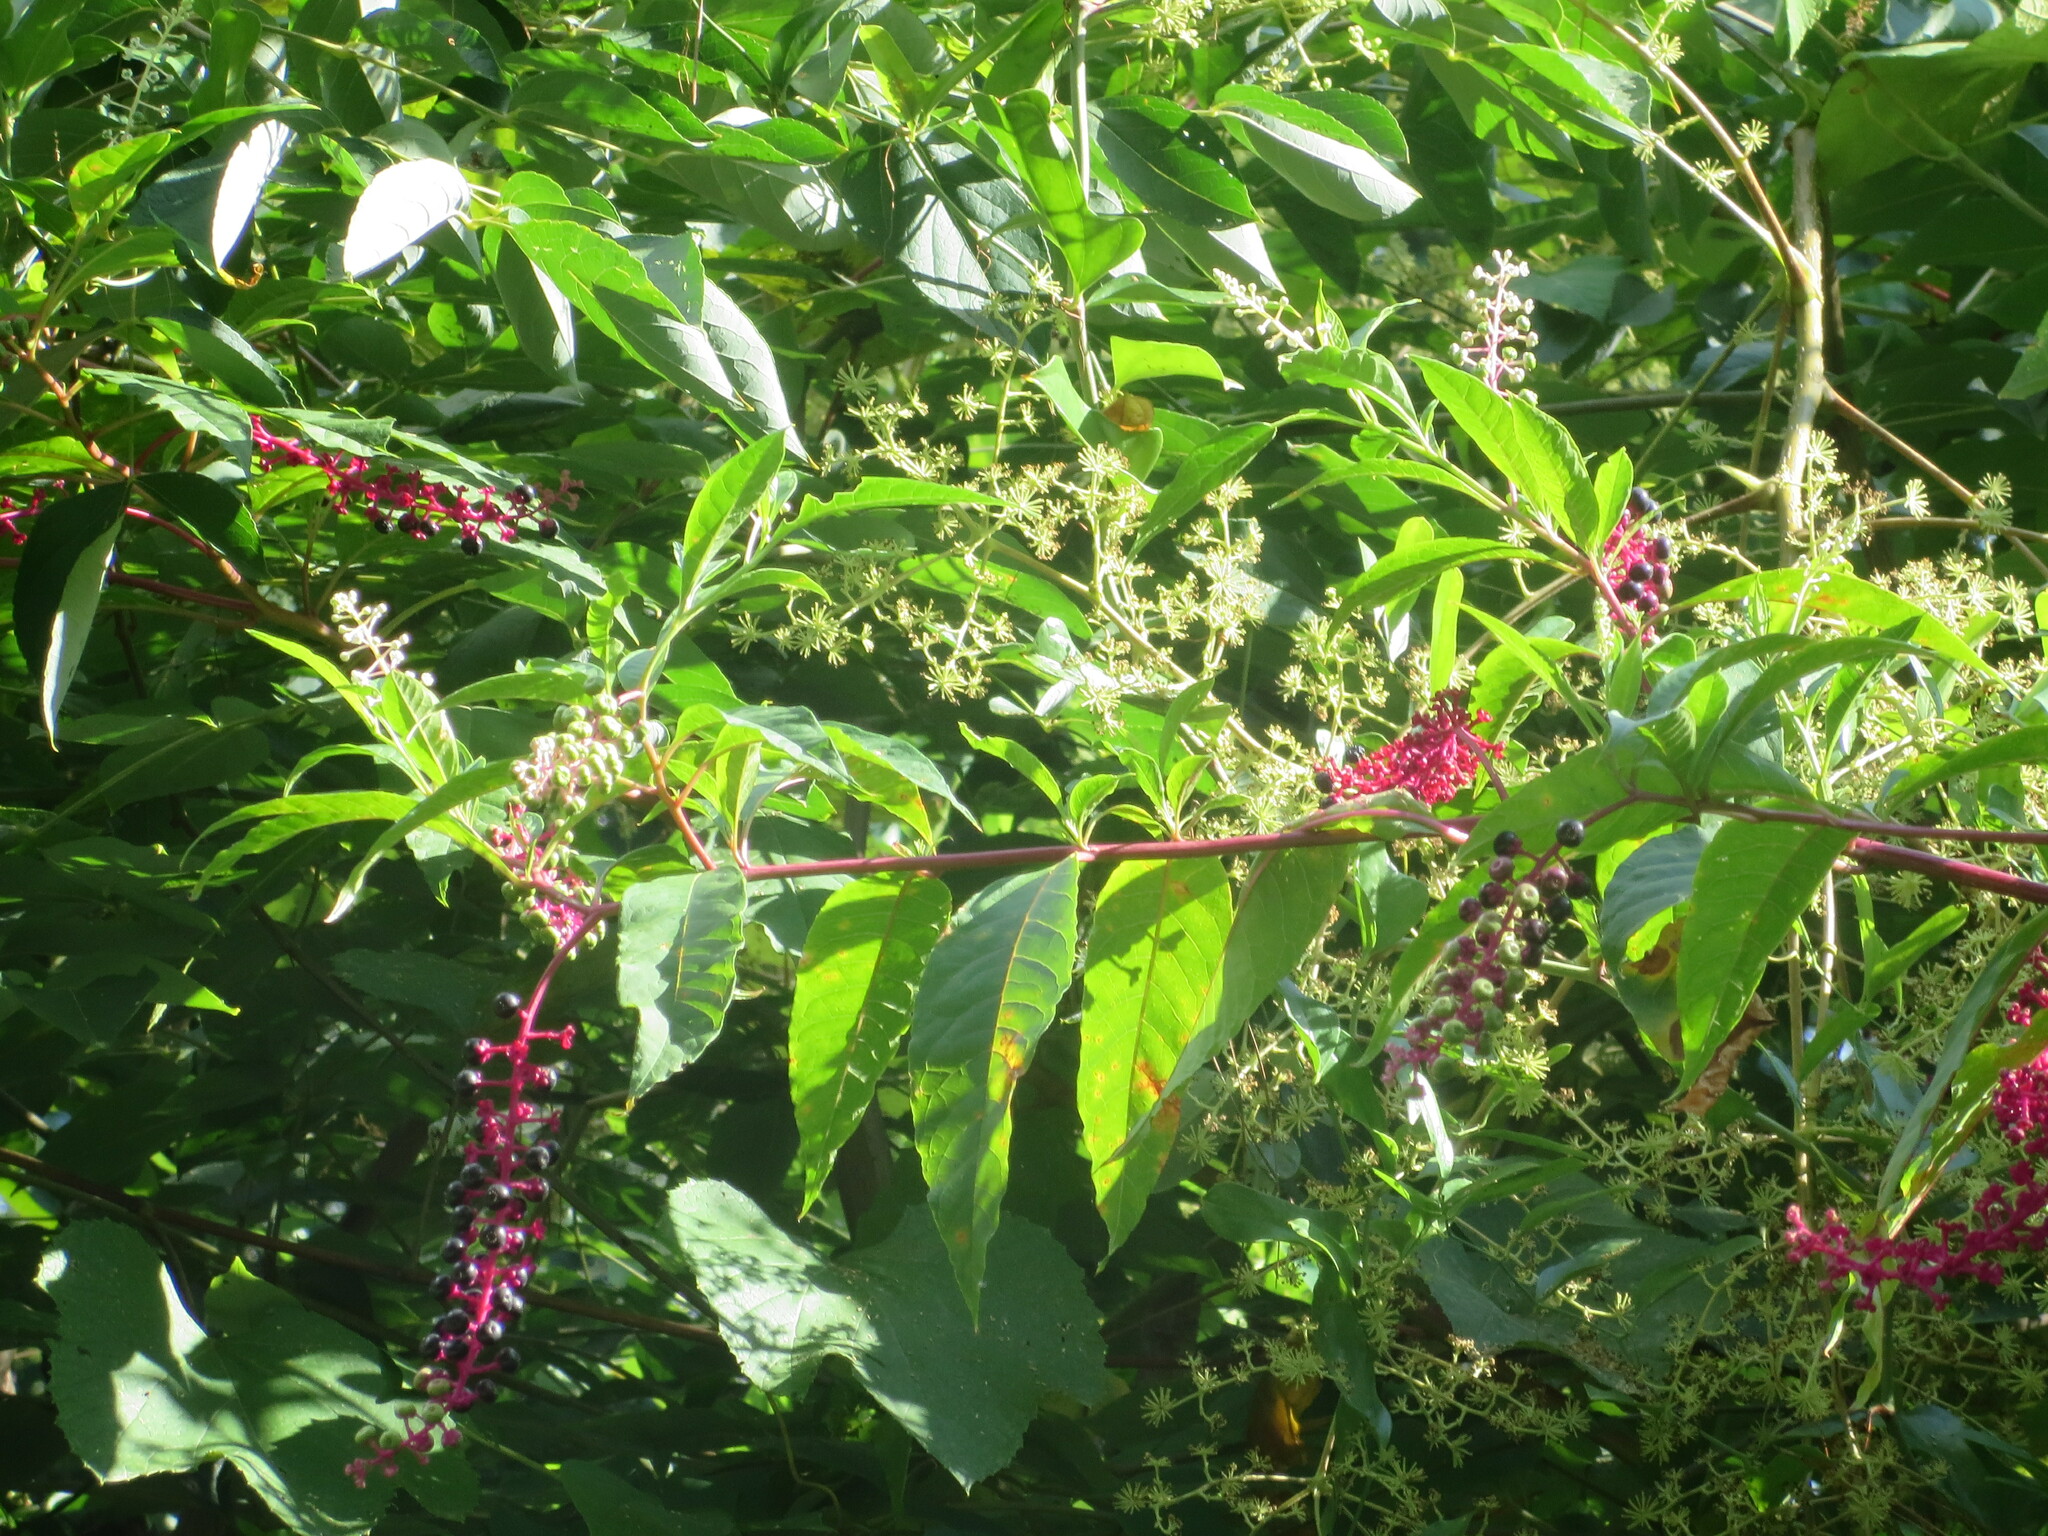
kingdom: Plantae
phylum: Tracheophyta
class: Magnoliopsida
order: Caryophyllales
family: Phytolaccaceae
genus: Phytolacca
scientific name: Phytolacca americana
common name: American pokeweed
